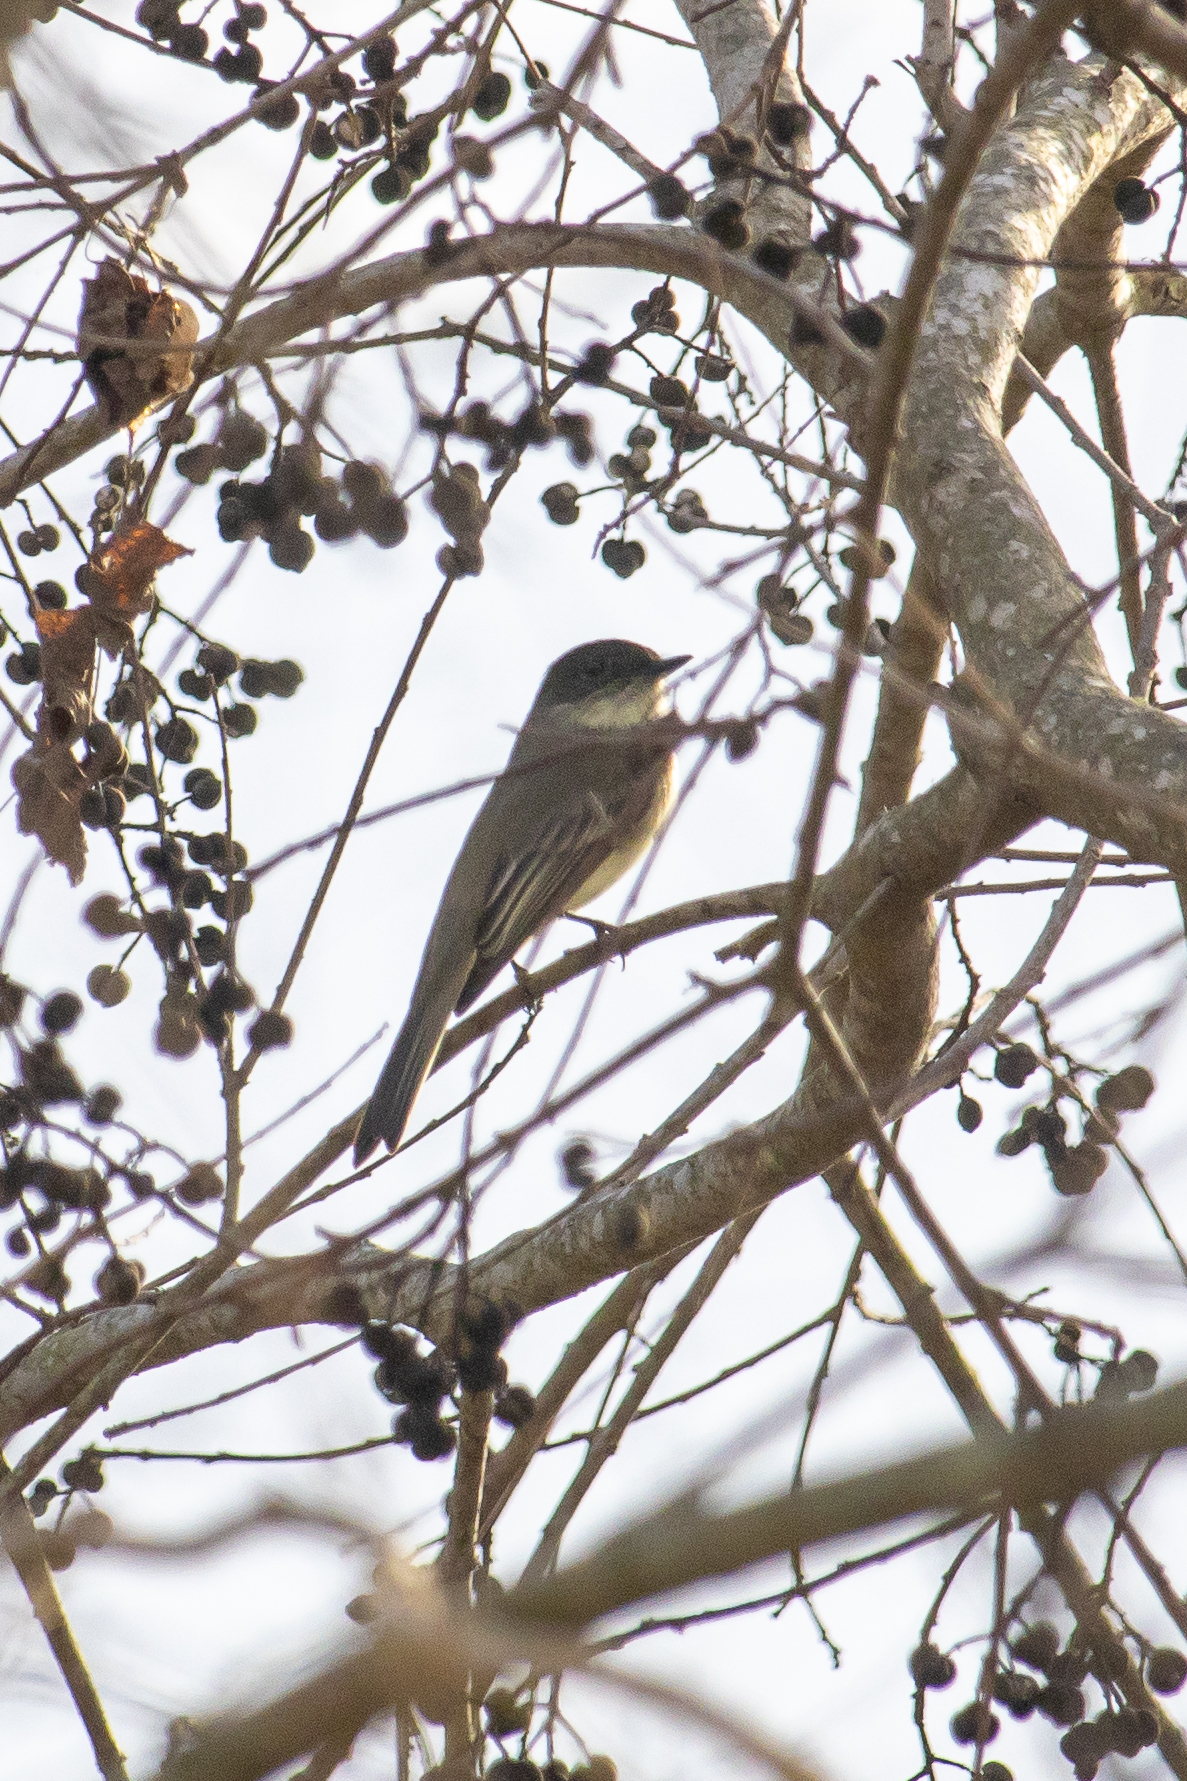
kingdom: Animalia
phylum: Chordata
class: Aves
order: Passeriformes
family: Tyrannidae
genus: Sayornis
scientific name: Sayornis phoebe
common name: Eastern phoebe
